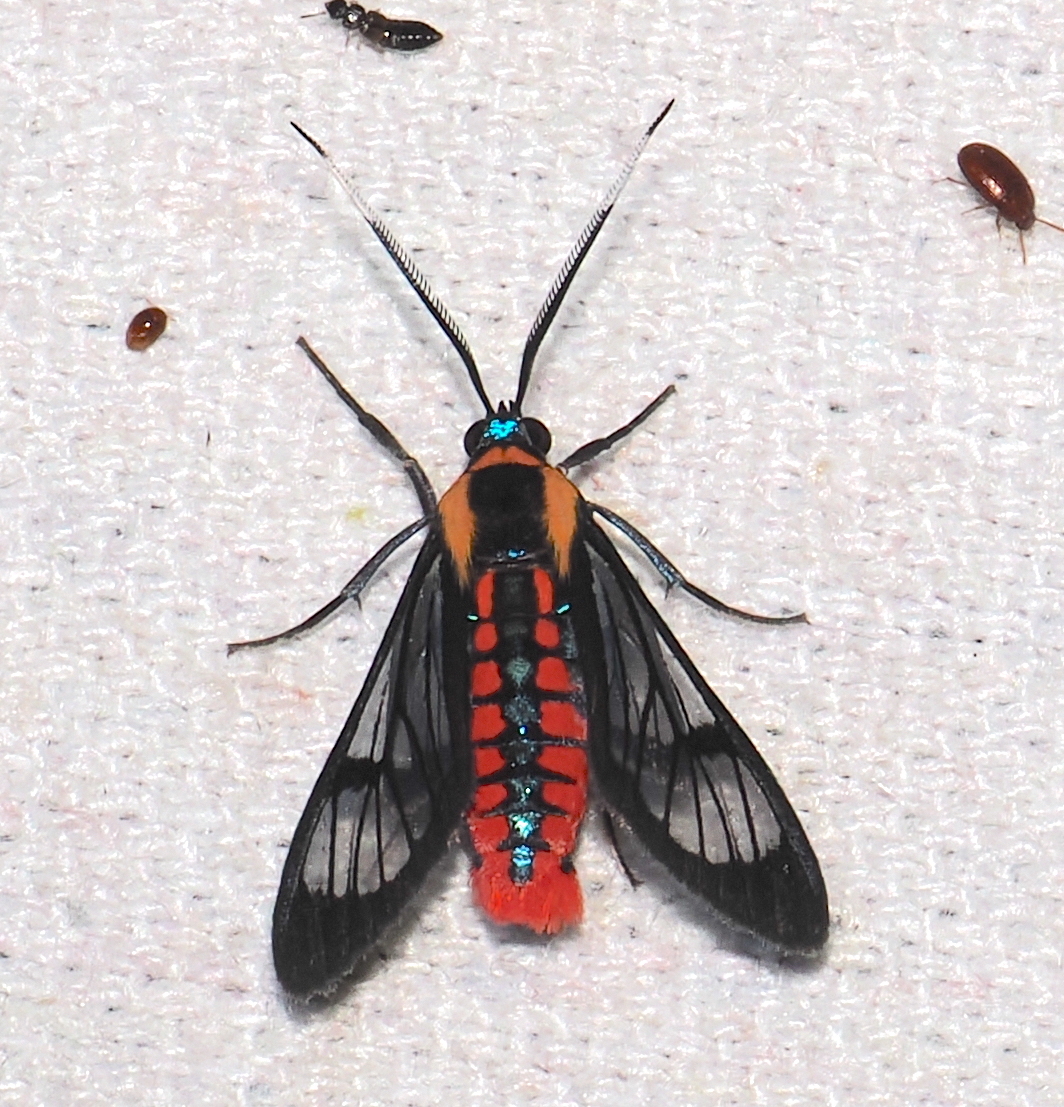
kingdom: Animalia
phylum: Arthropoda
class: Insecta
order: Lepidoptera
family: Erebidae
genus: Phoenicoprocta
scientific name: Phoenicoprocta sanguinea
